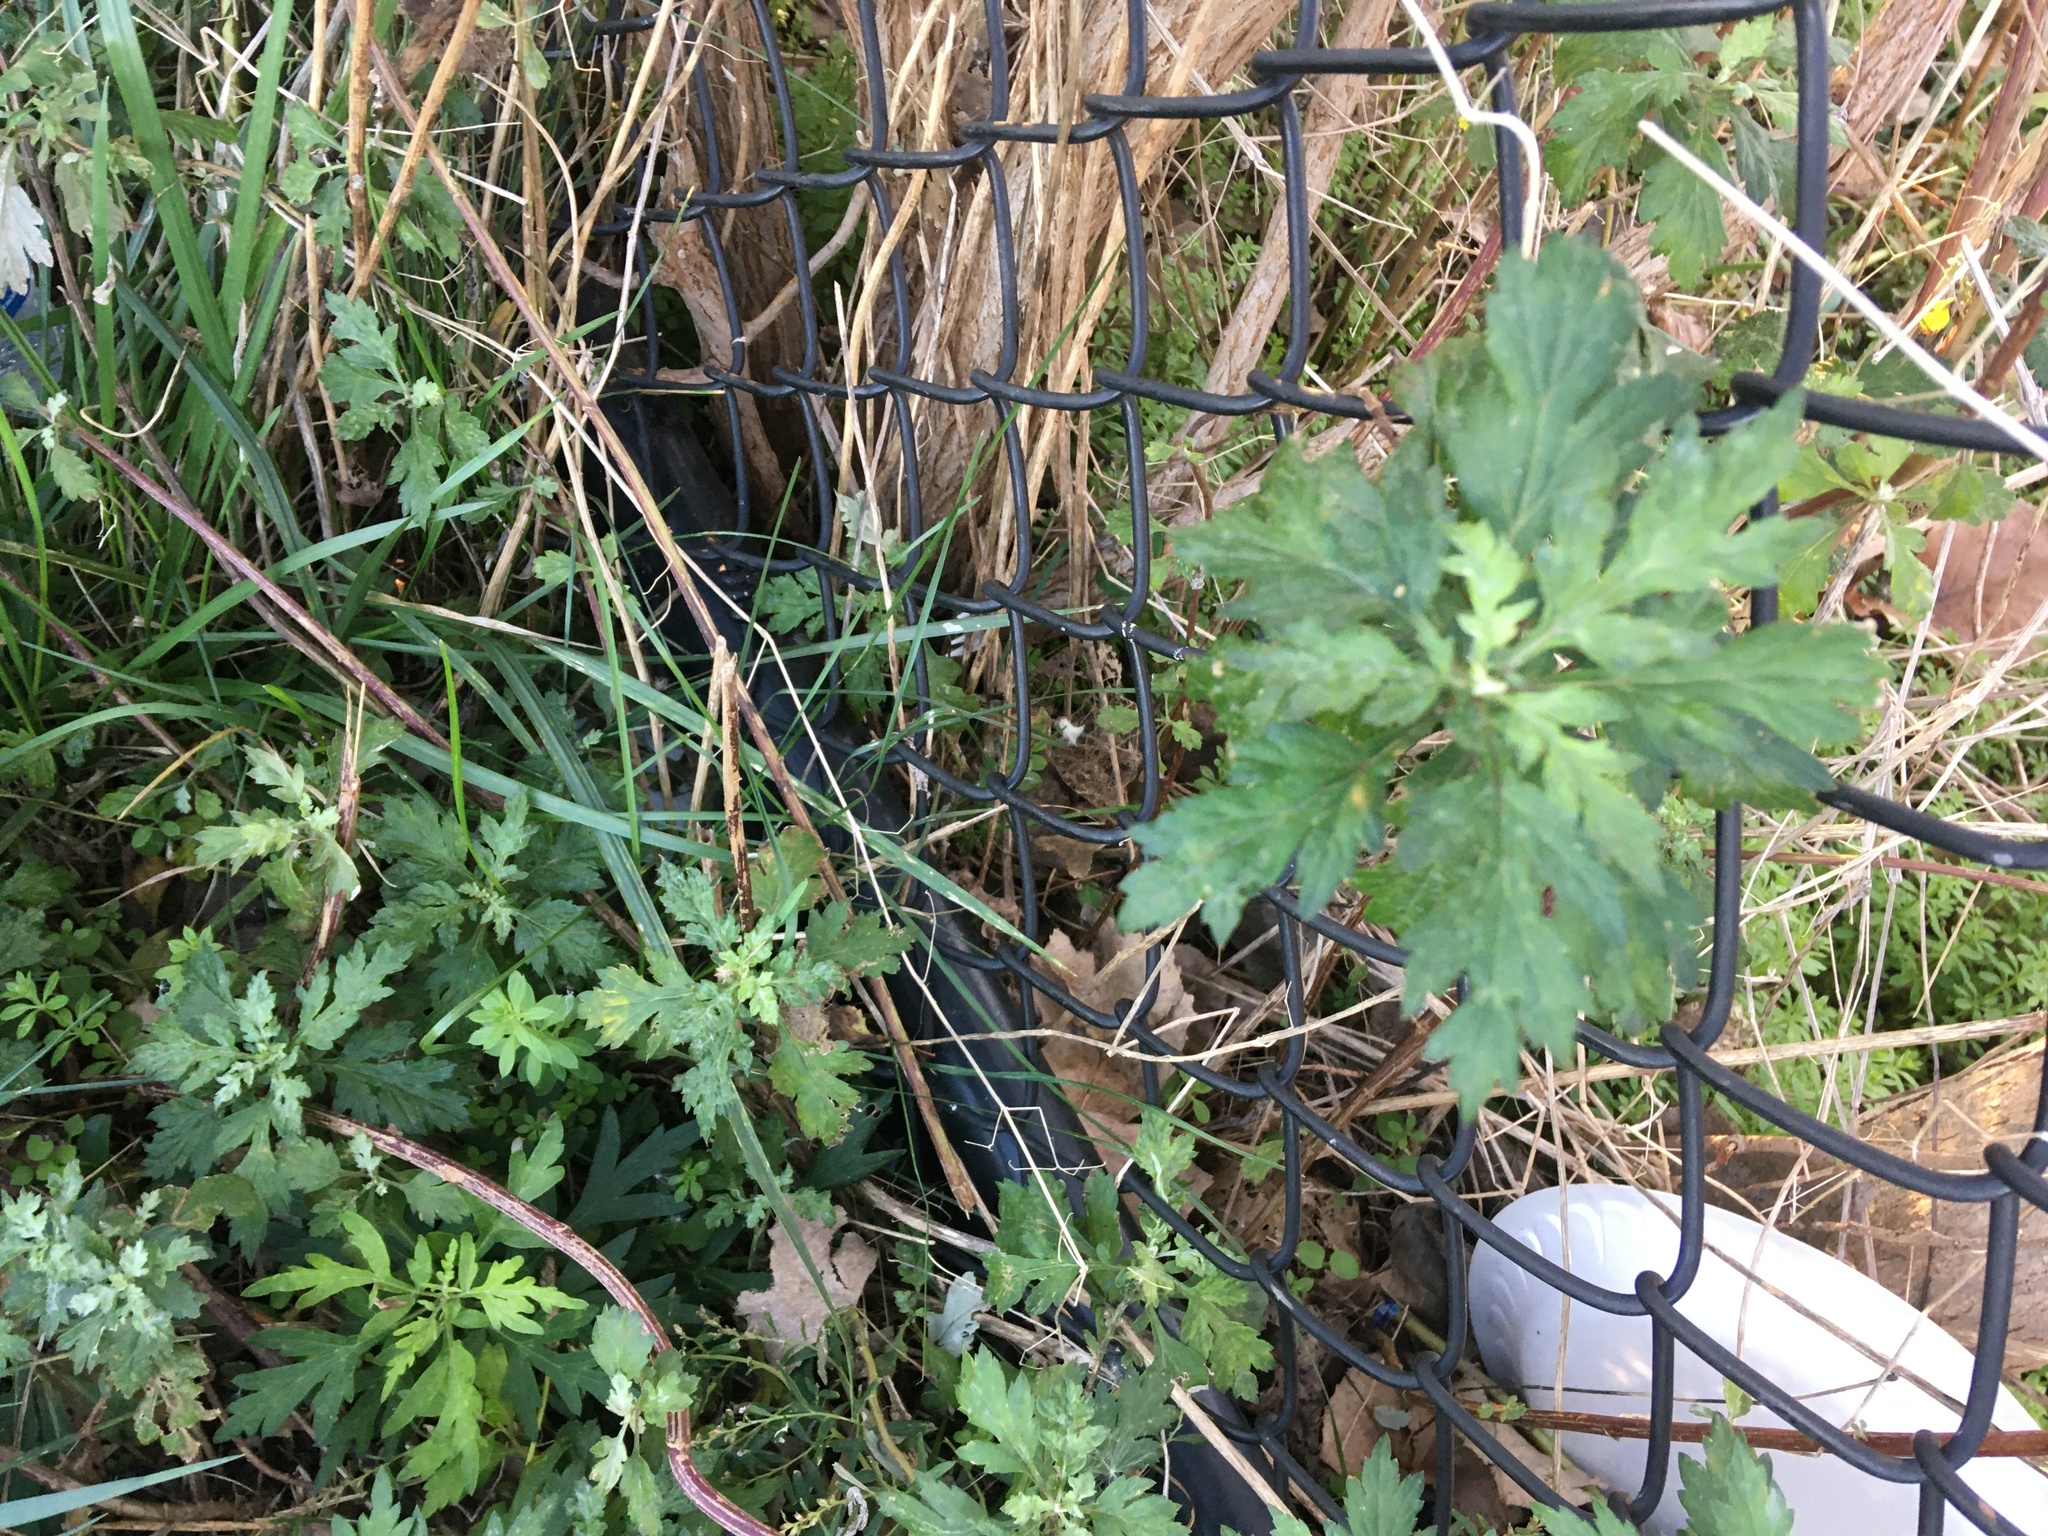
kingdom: Plantae
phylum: Tracheophyta
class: Magnoliopsida
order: Asterales
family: Asteraceae
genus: Artemisia
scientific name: Artemisia vulgaris
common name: Mugwort
